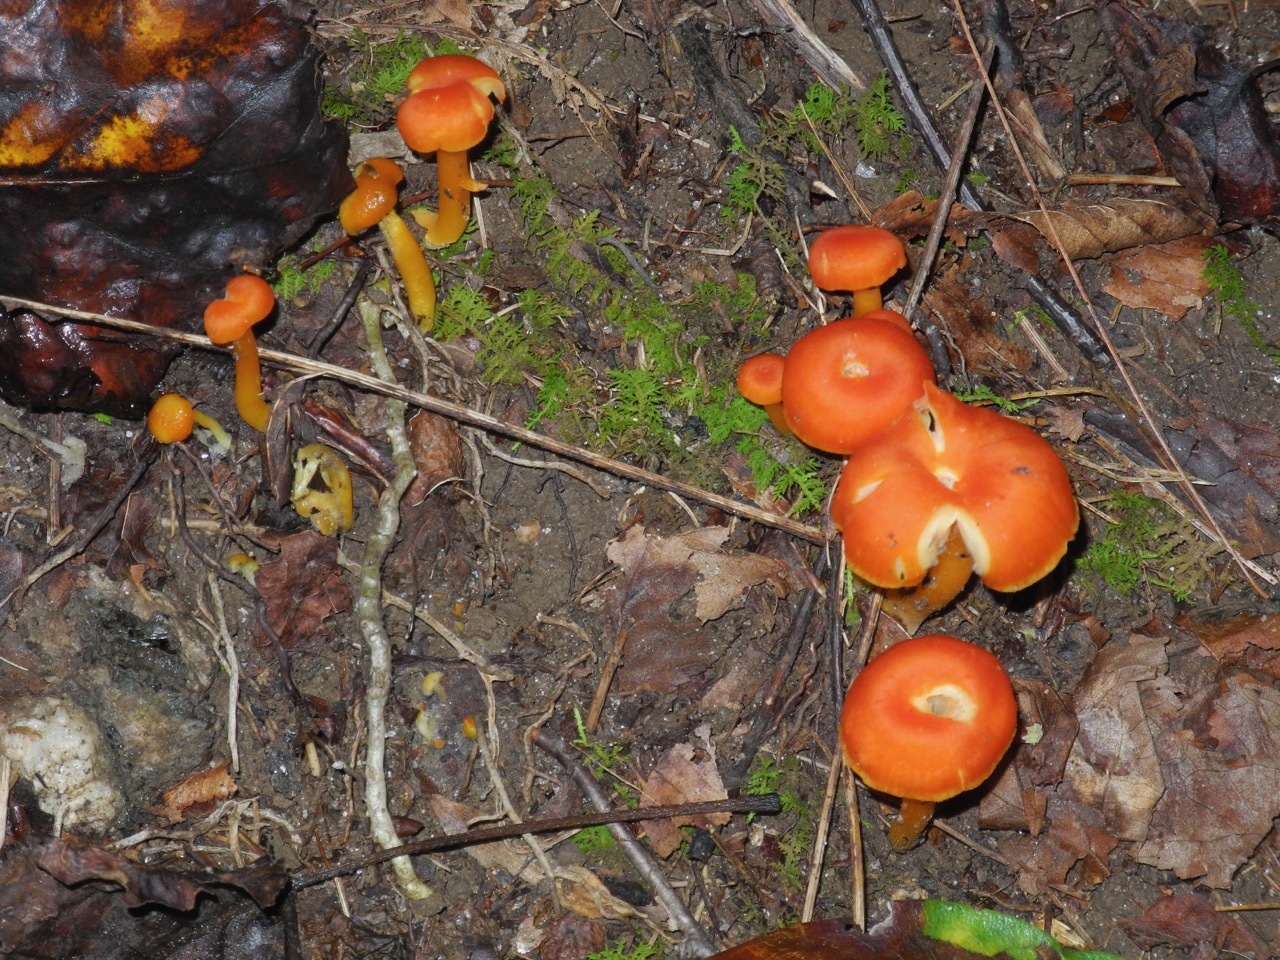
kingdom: Fungi
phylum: Basidiomycota
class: Agaricomycetes
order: Agaricales
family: Hygrophoraceae
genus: Hygrocybe
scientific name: Hygrocybe miniata
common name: Vermilion waxcap
